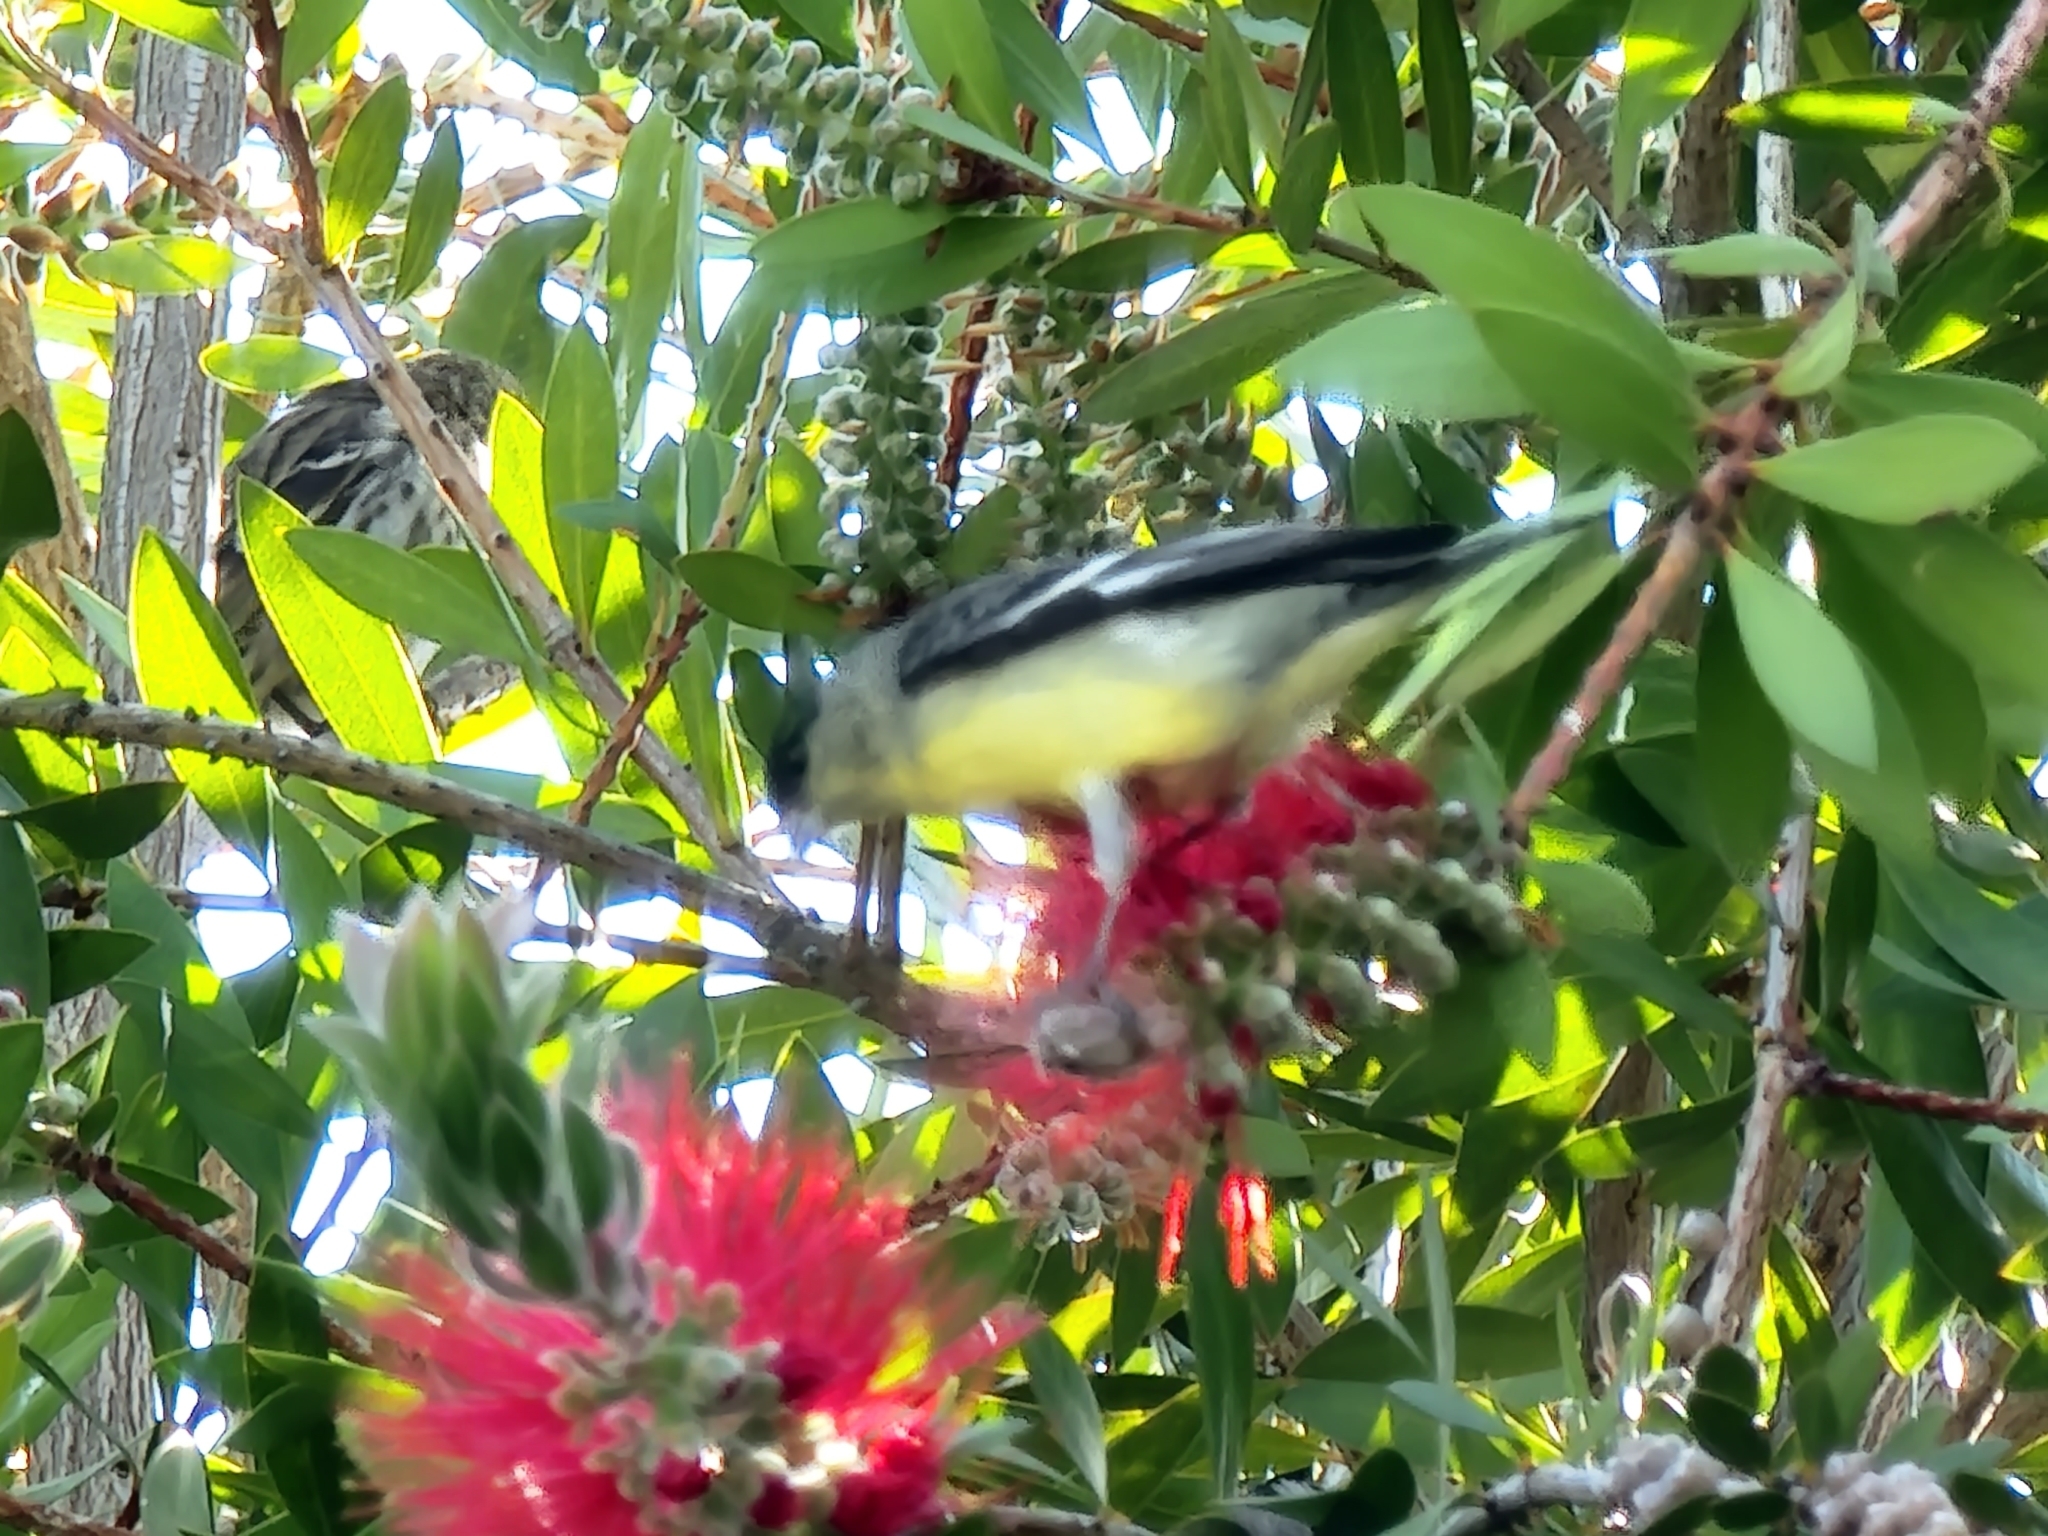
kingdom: Animalia
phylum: Chordata
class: Aves
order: Passeriformes
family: Fringillidae
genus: Spinus
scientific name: Spinus psaltria
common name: Lesser goldfinch
